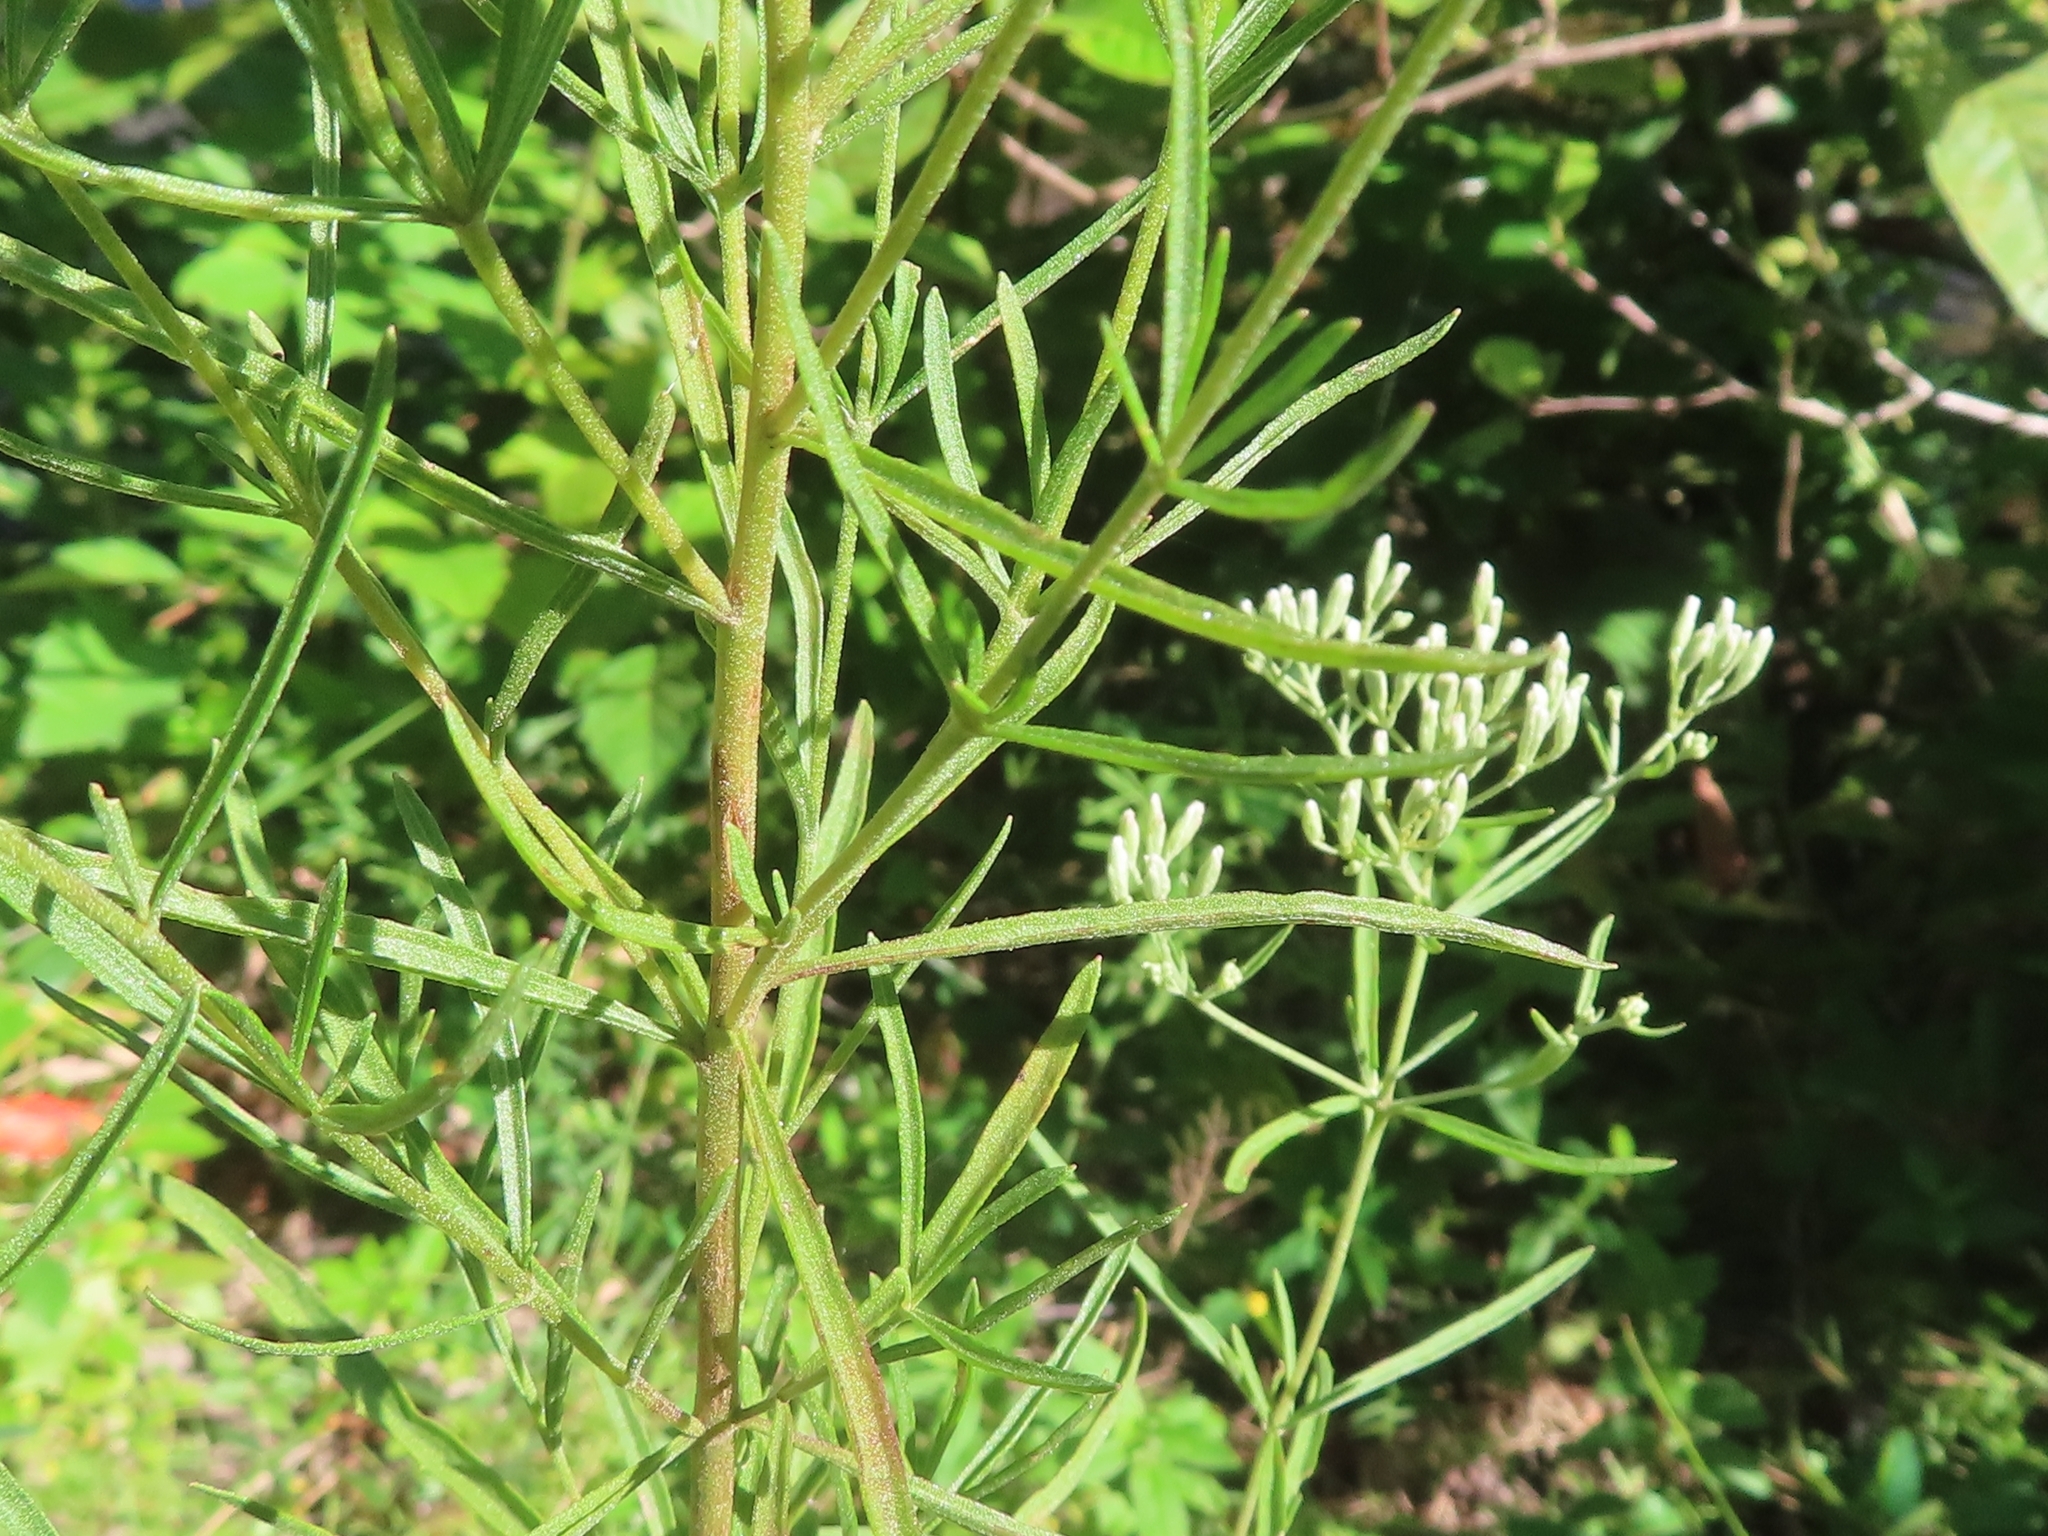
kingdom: Plantae
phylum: Tracheophyta
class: Magnoliopsida
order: Asterales
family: Asteraceae
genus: Eupatorium
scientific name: Eupatorium hyssopifolium
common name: Hyssop-leaf thoroughwort
